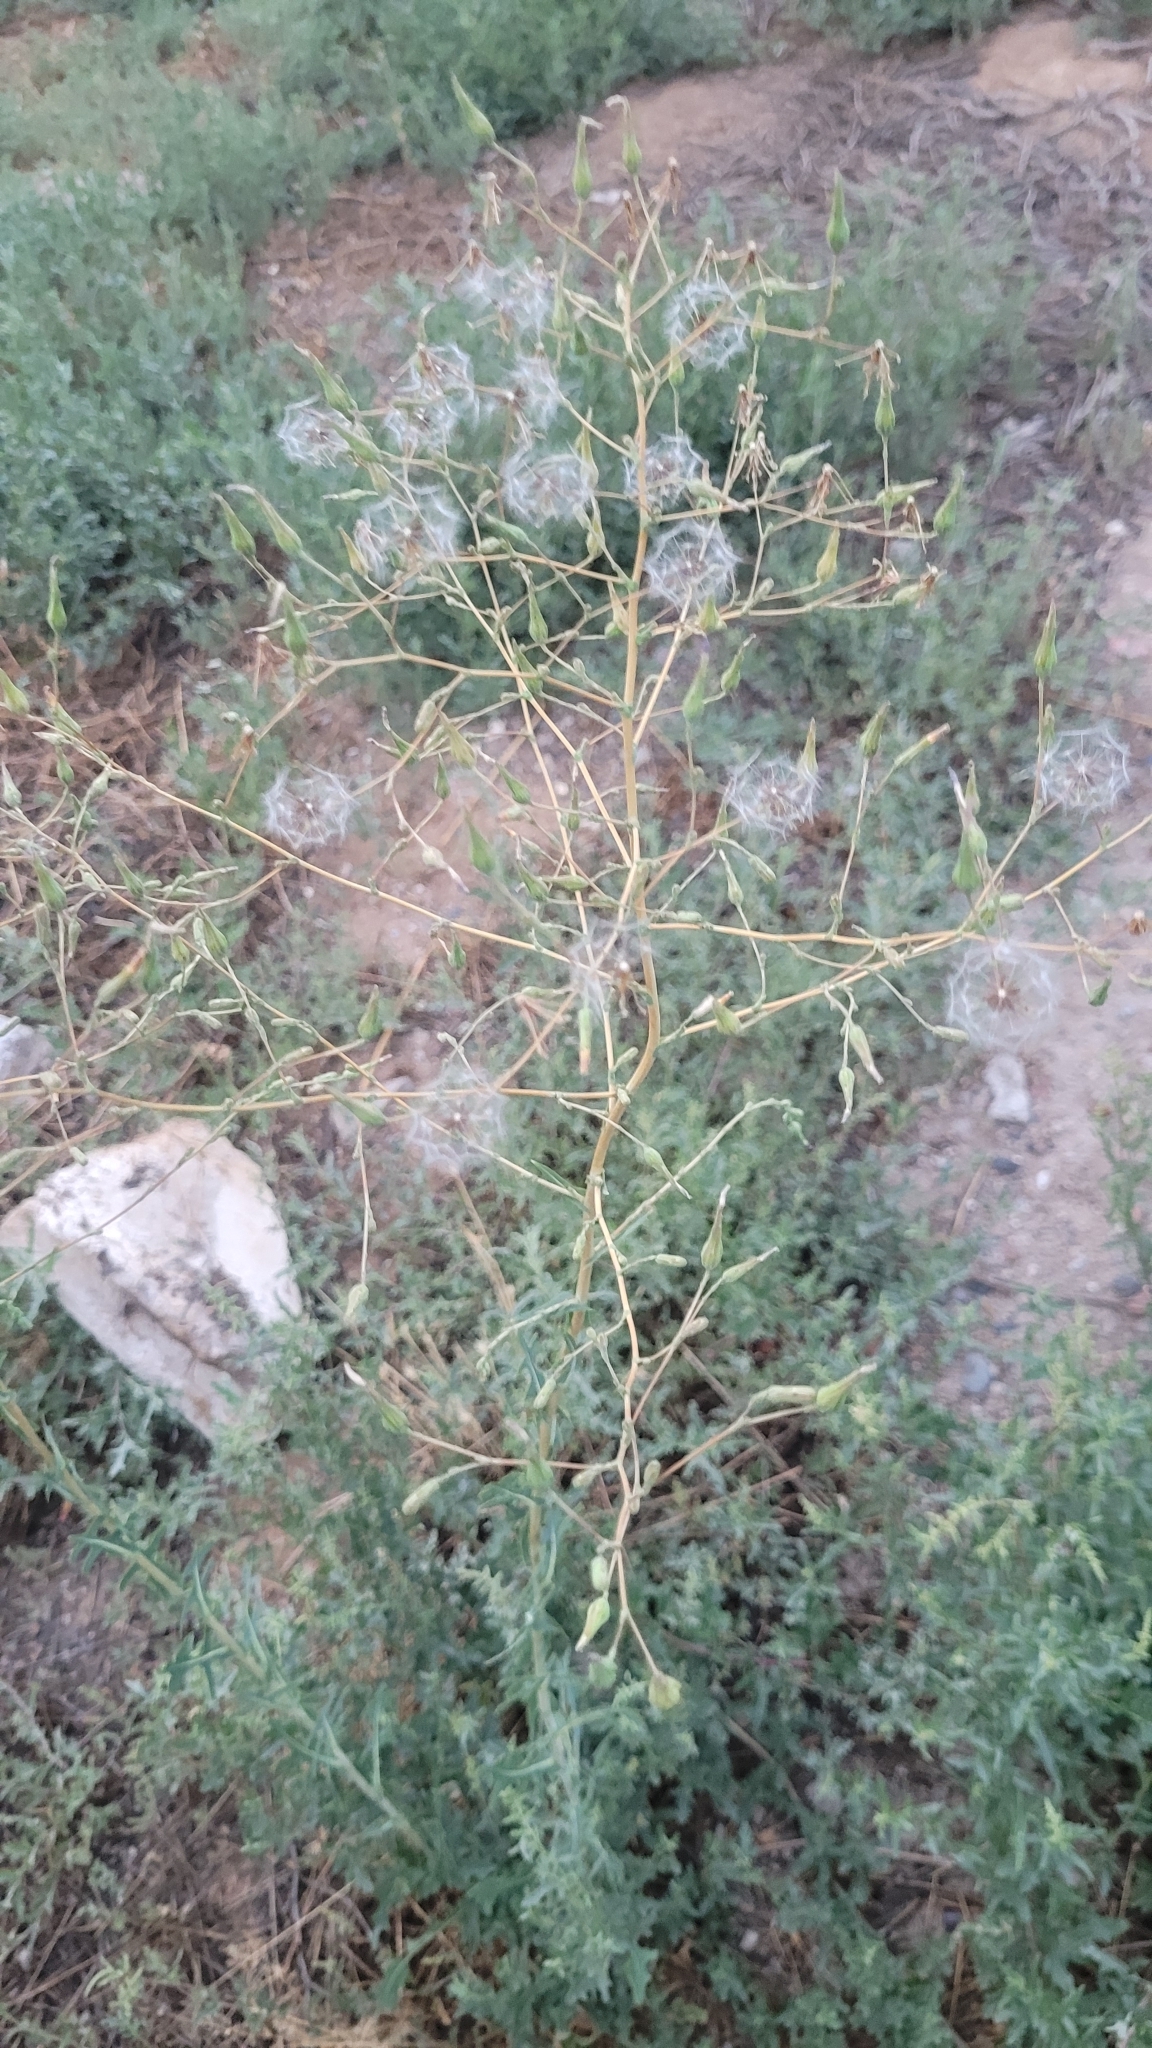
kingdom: Plantae
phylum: Tracheophyta
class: Magnoliopsida
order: Asterales
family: Asteraceae
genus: Lactuca
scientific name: Lactuca serriola
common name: Prickly lettuce
